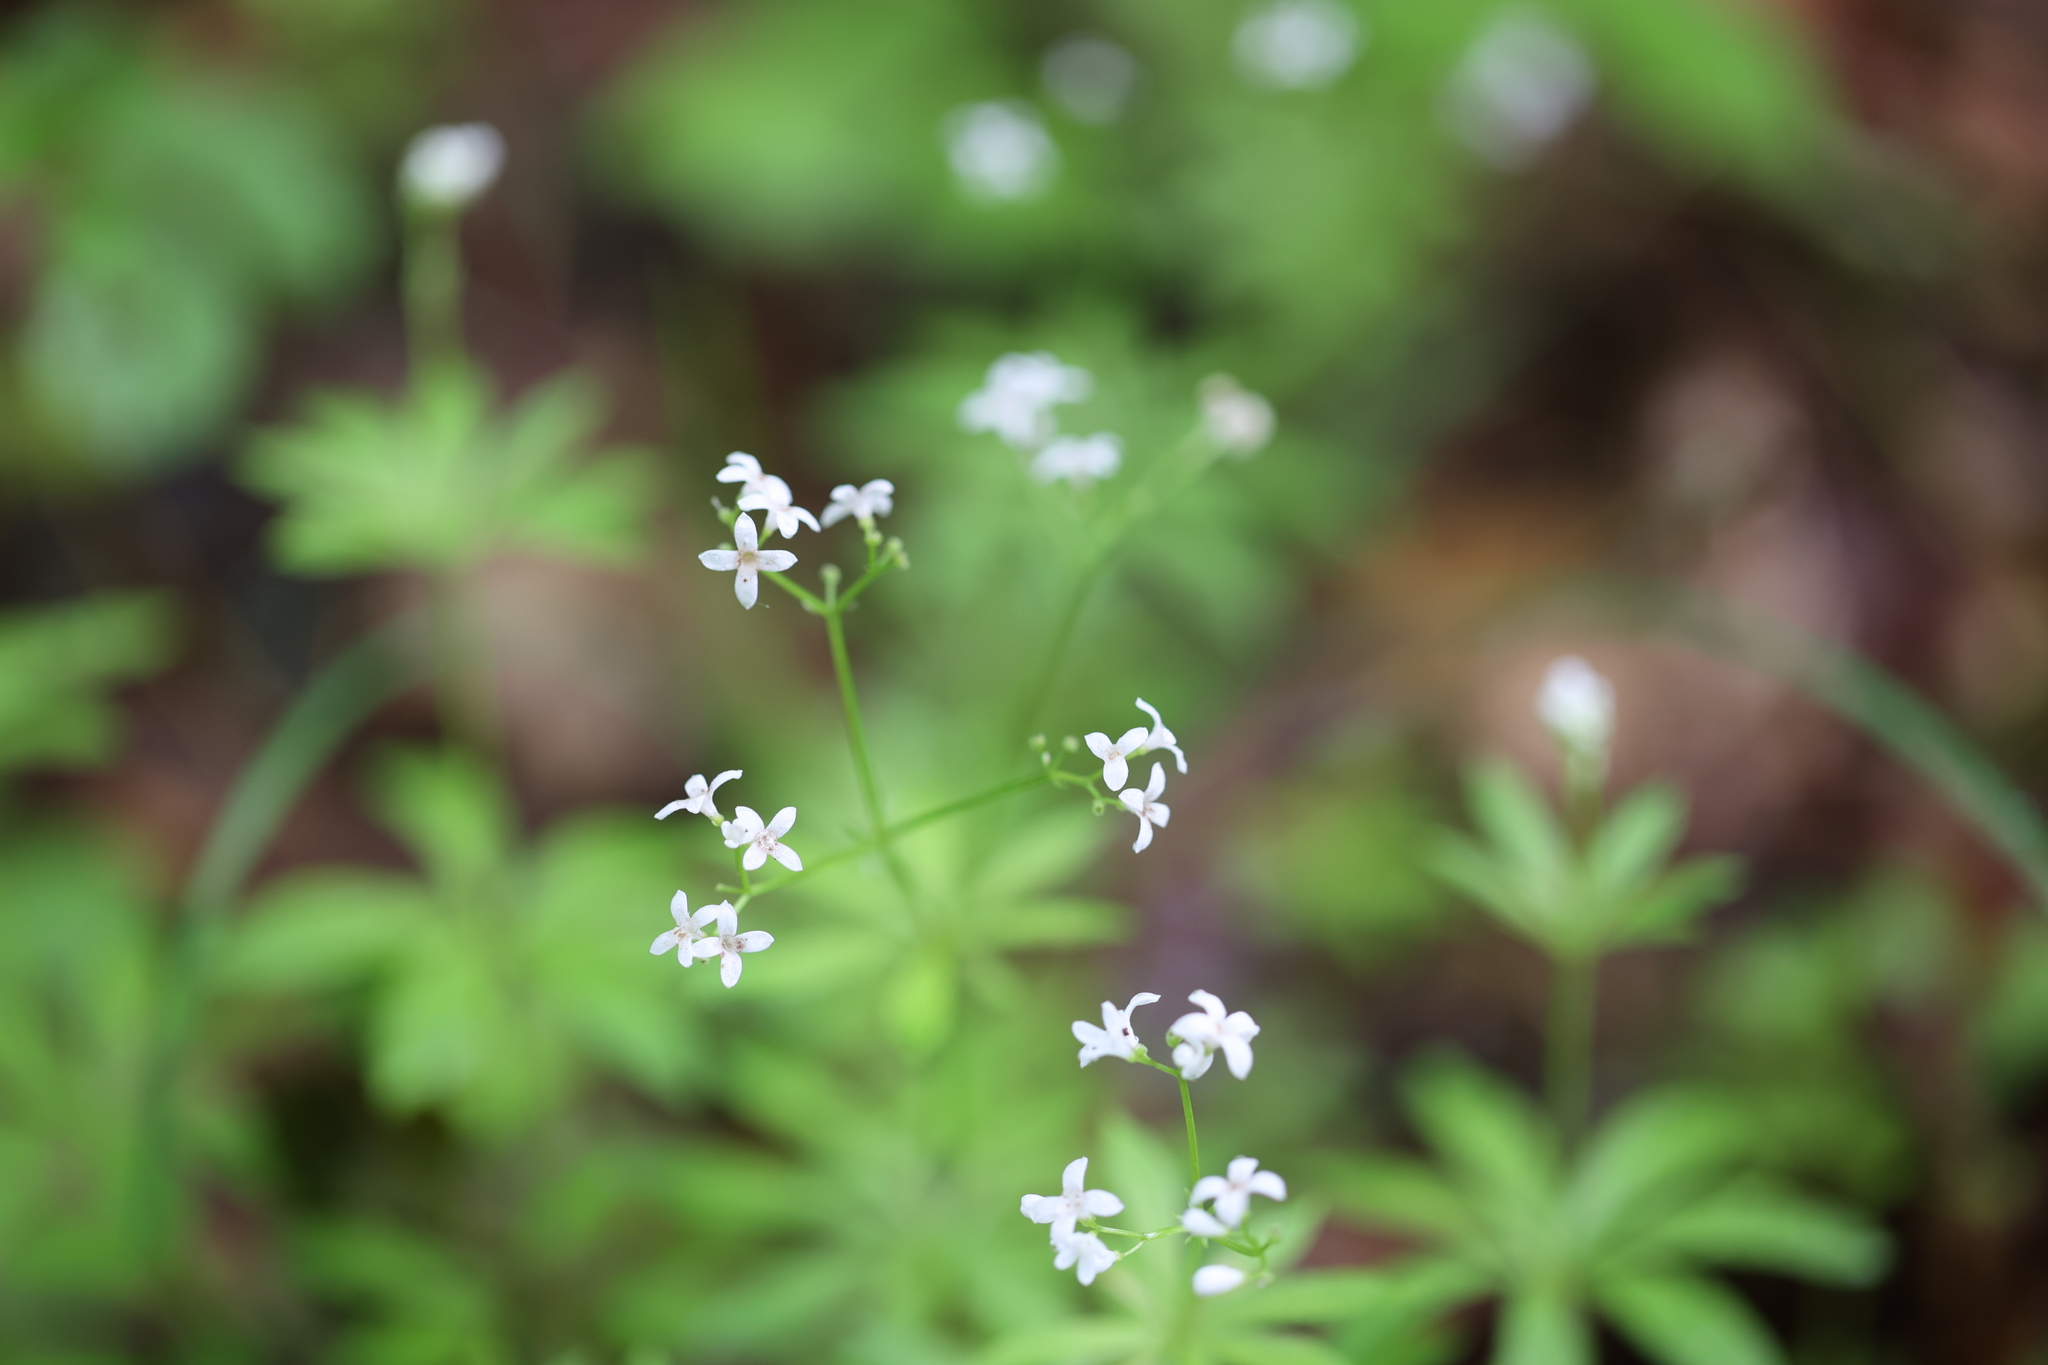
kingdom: Plantae
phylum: Tracheophyta
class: Magnoliopsida
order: Gentianales
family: Rubiaceae
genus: Galium
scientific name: Galium odoratum
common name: Sweet woodruff
